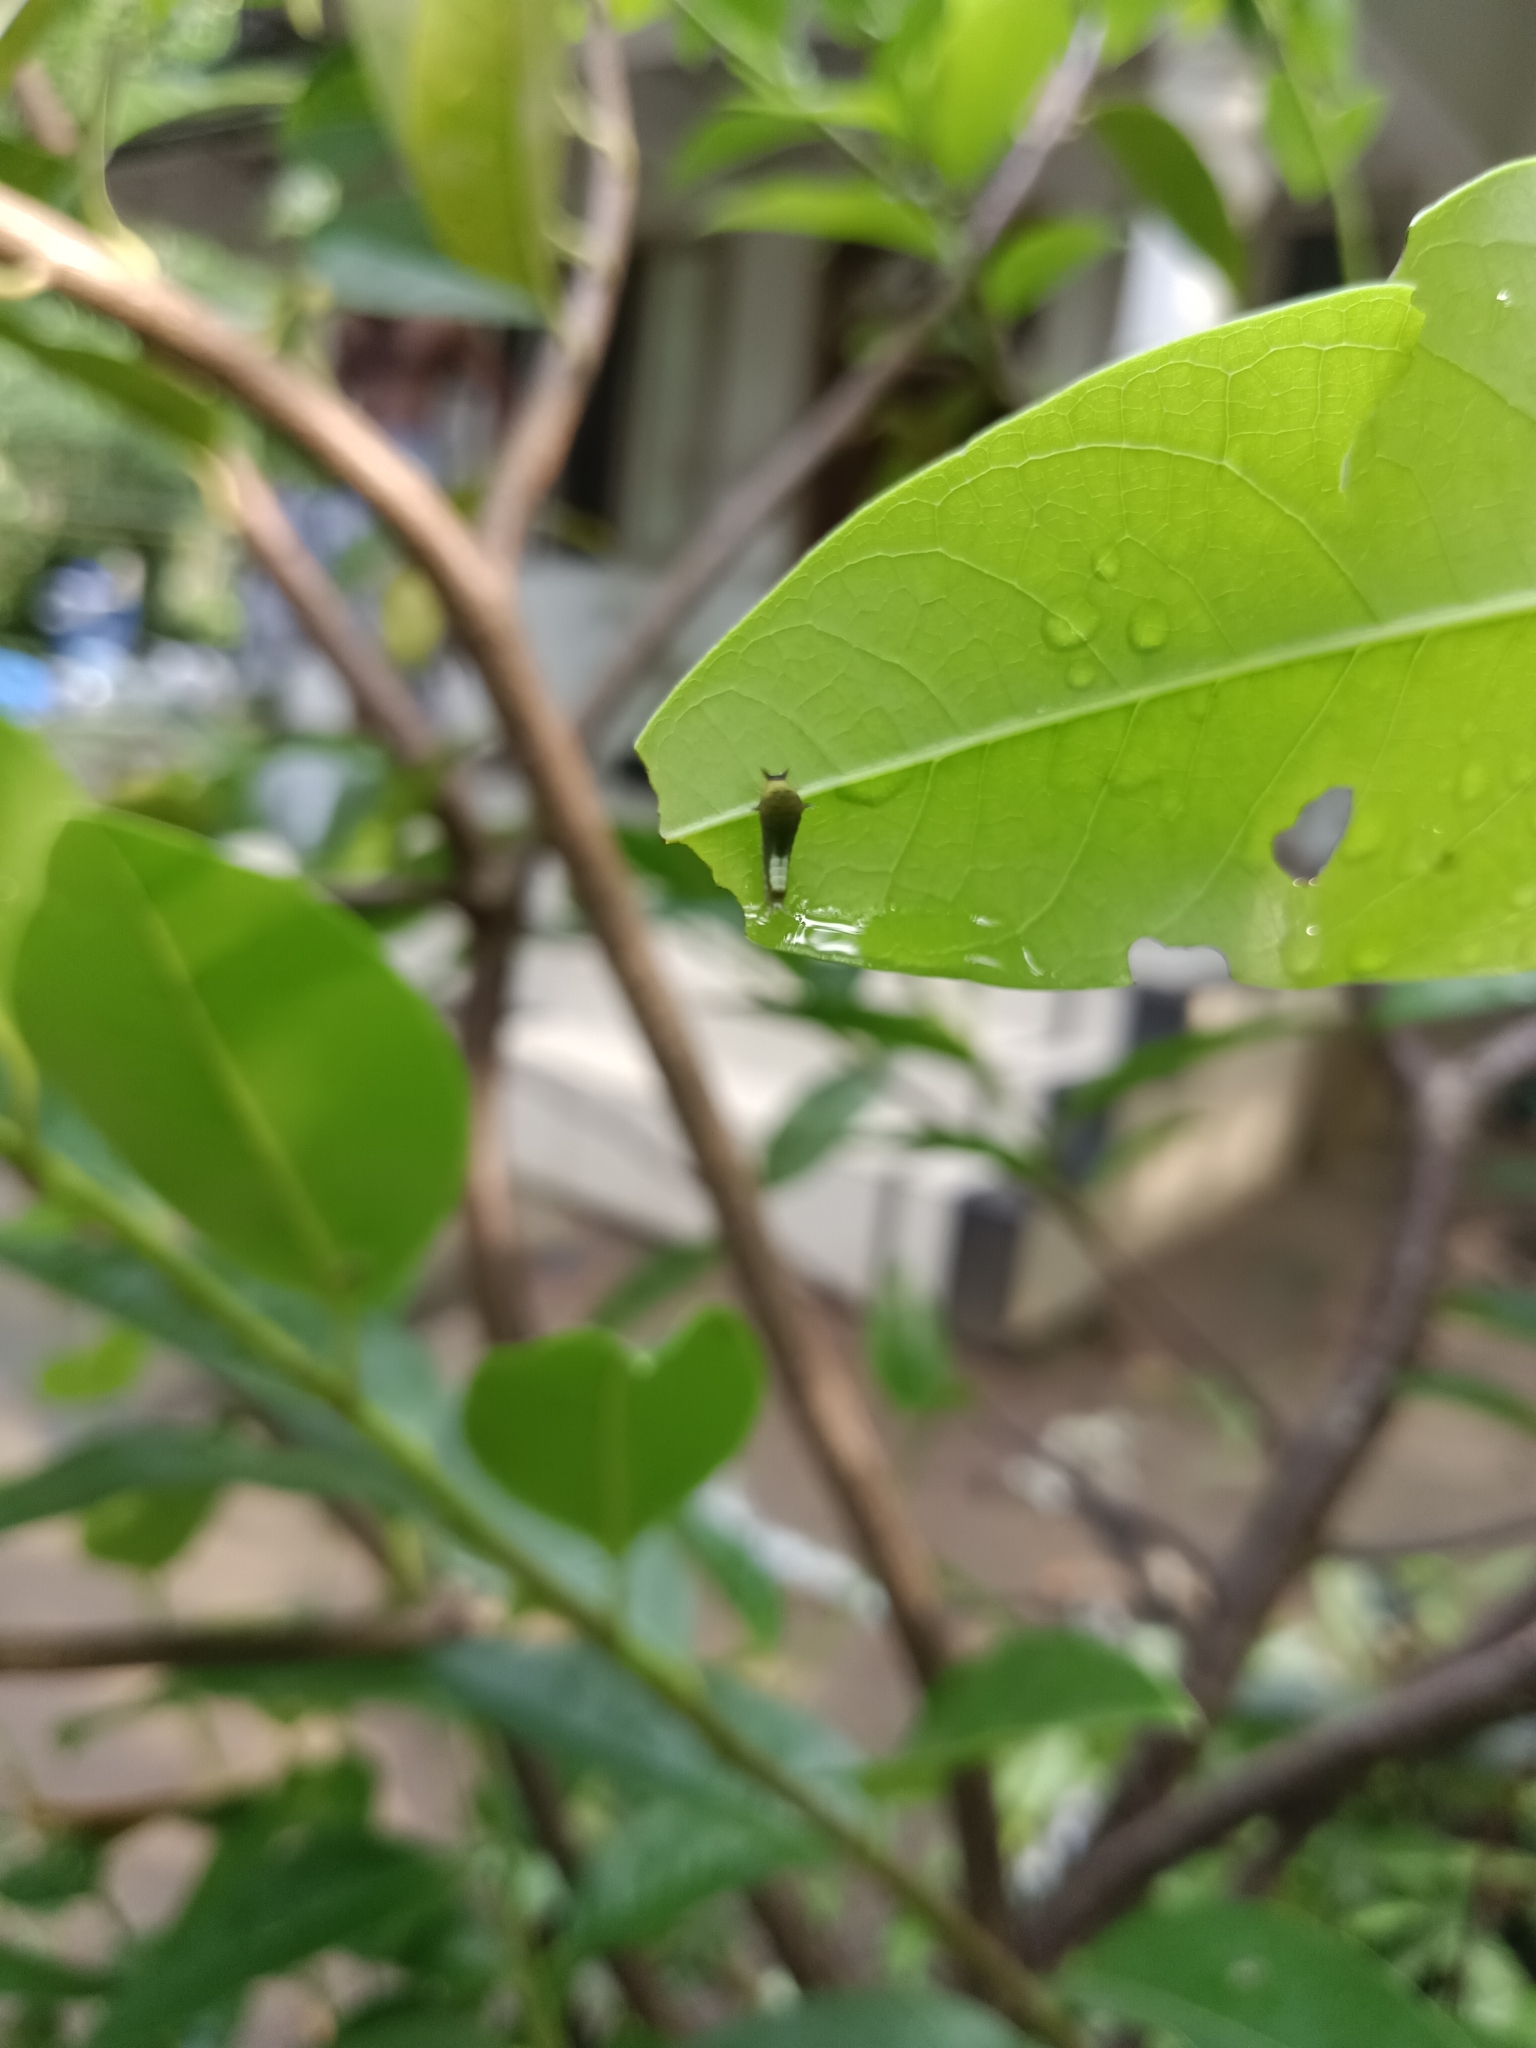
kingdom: Animalia
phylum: Arthropoda
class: Insecta
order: Lepidoptera
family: Papilionidae
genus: Graphium
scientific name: Graphium agamemnon
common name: Tailed jay
